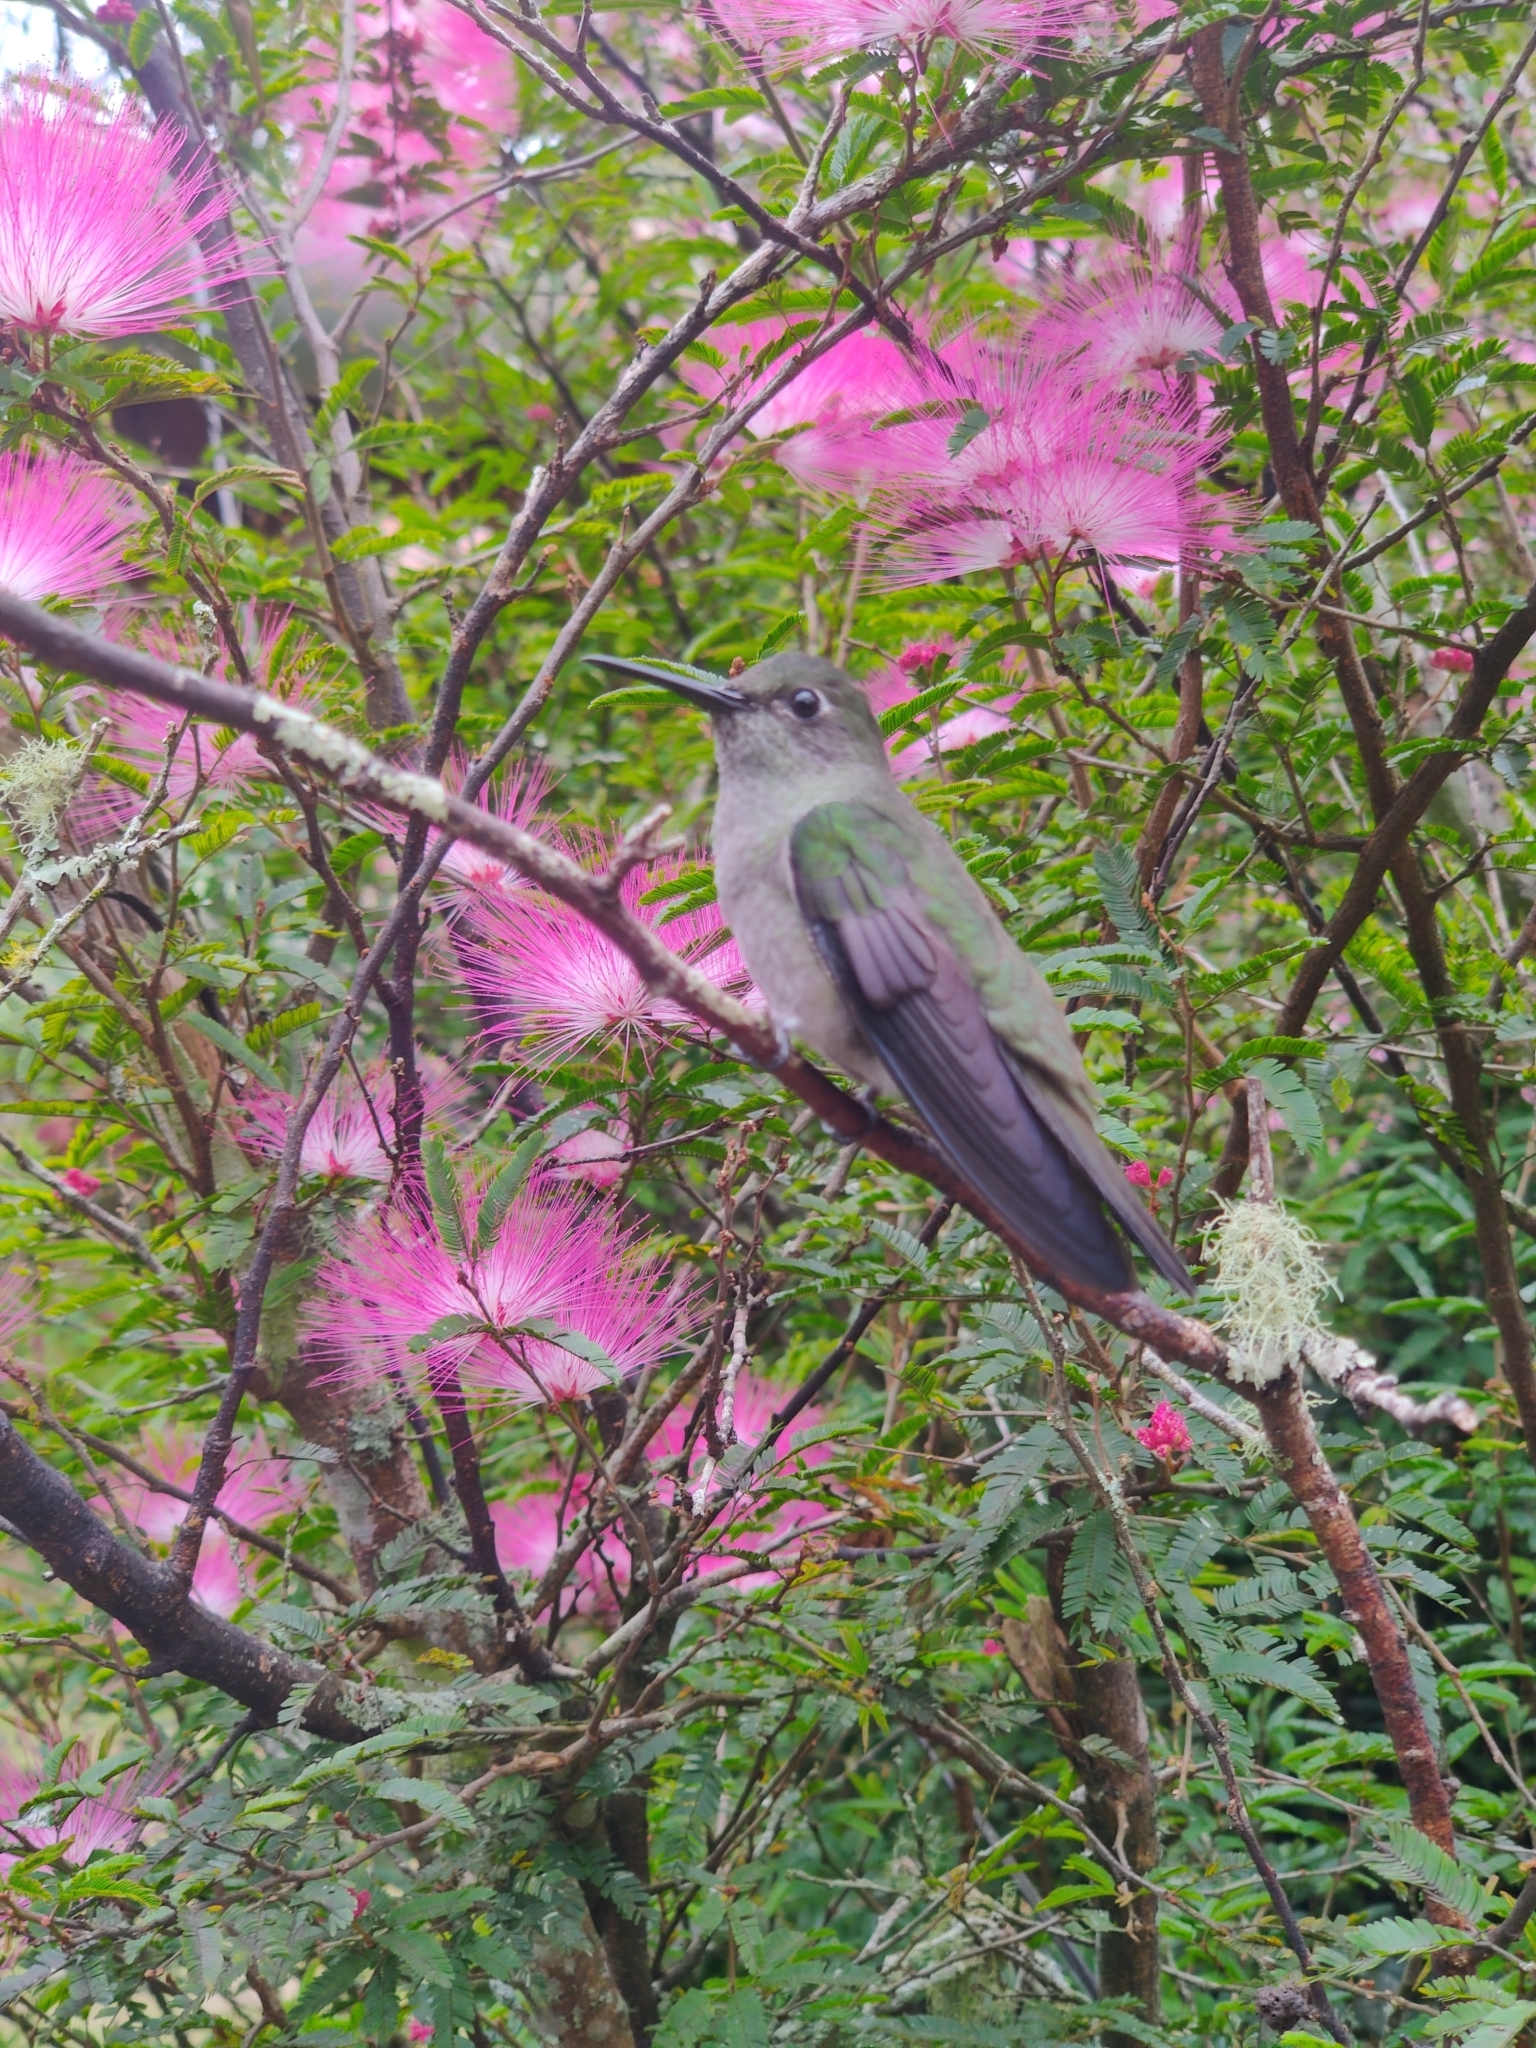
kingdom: Animalia
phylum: Chordata
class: Aves
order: Apodiformes
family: Trochilidae
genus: Eupetomena
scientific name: Eupetomena cirrochloris
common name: Sombre hummingbird
